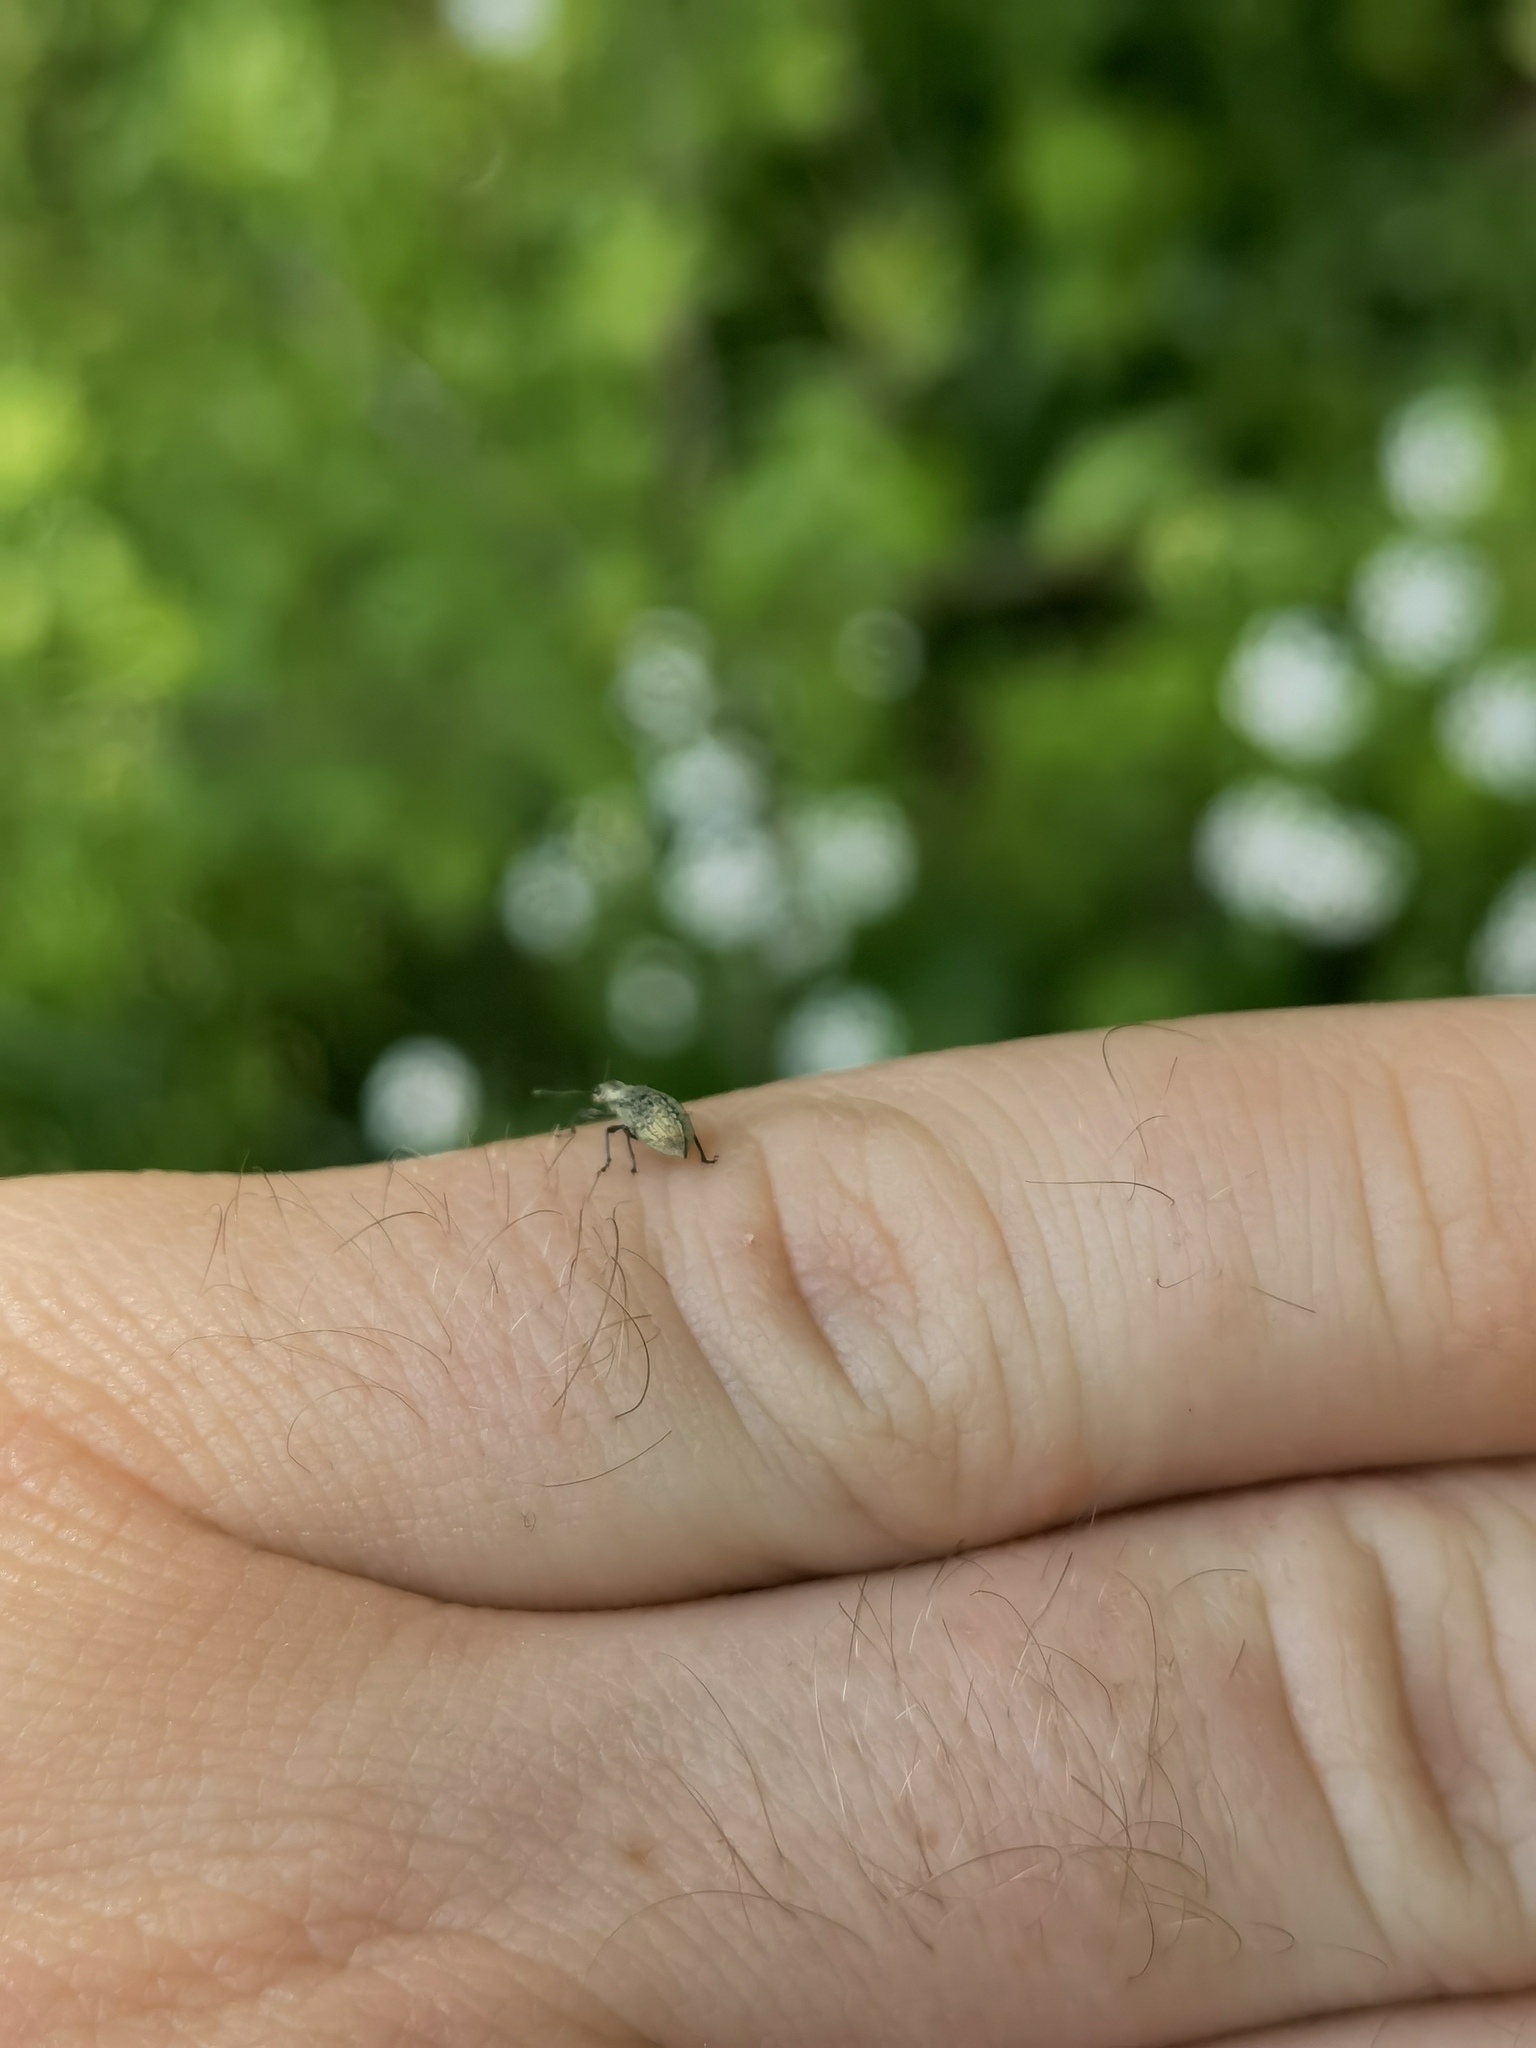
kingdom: Animalia
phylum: Arthropoda
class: Insecta
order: Coleoptera
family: Curculionidae
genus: Polydrusus
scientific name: Polydrusus cervinus
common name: Weevil
